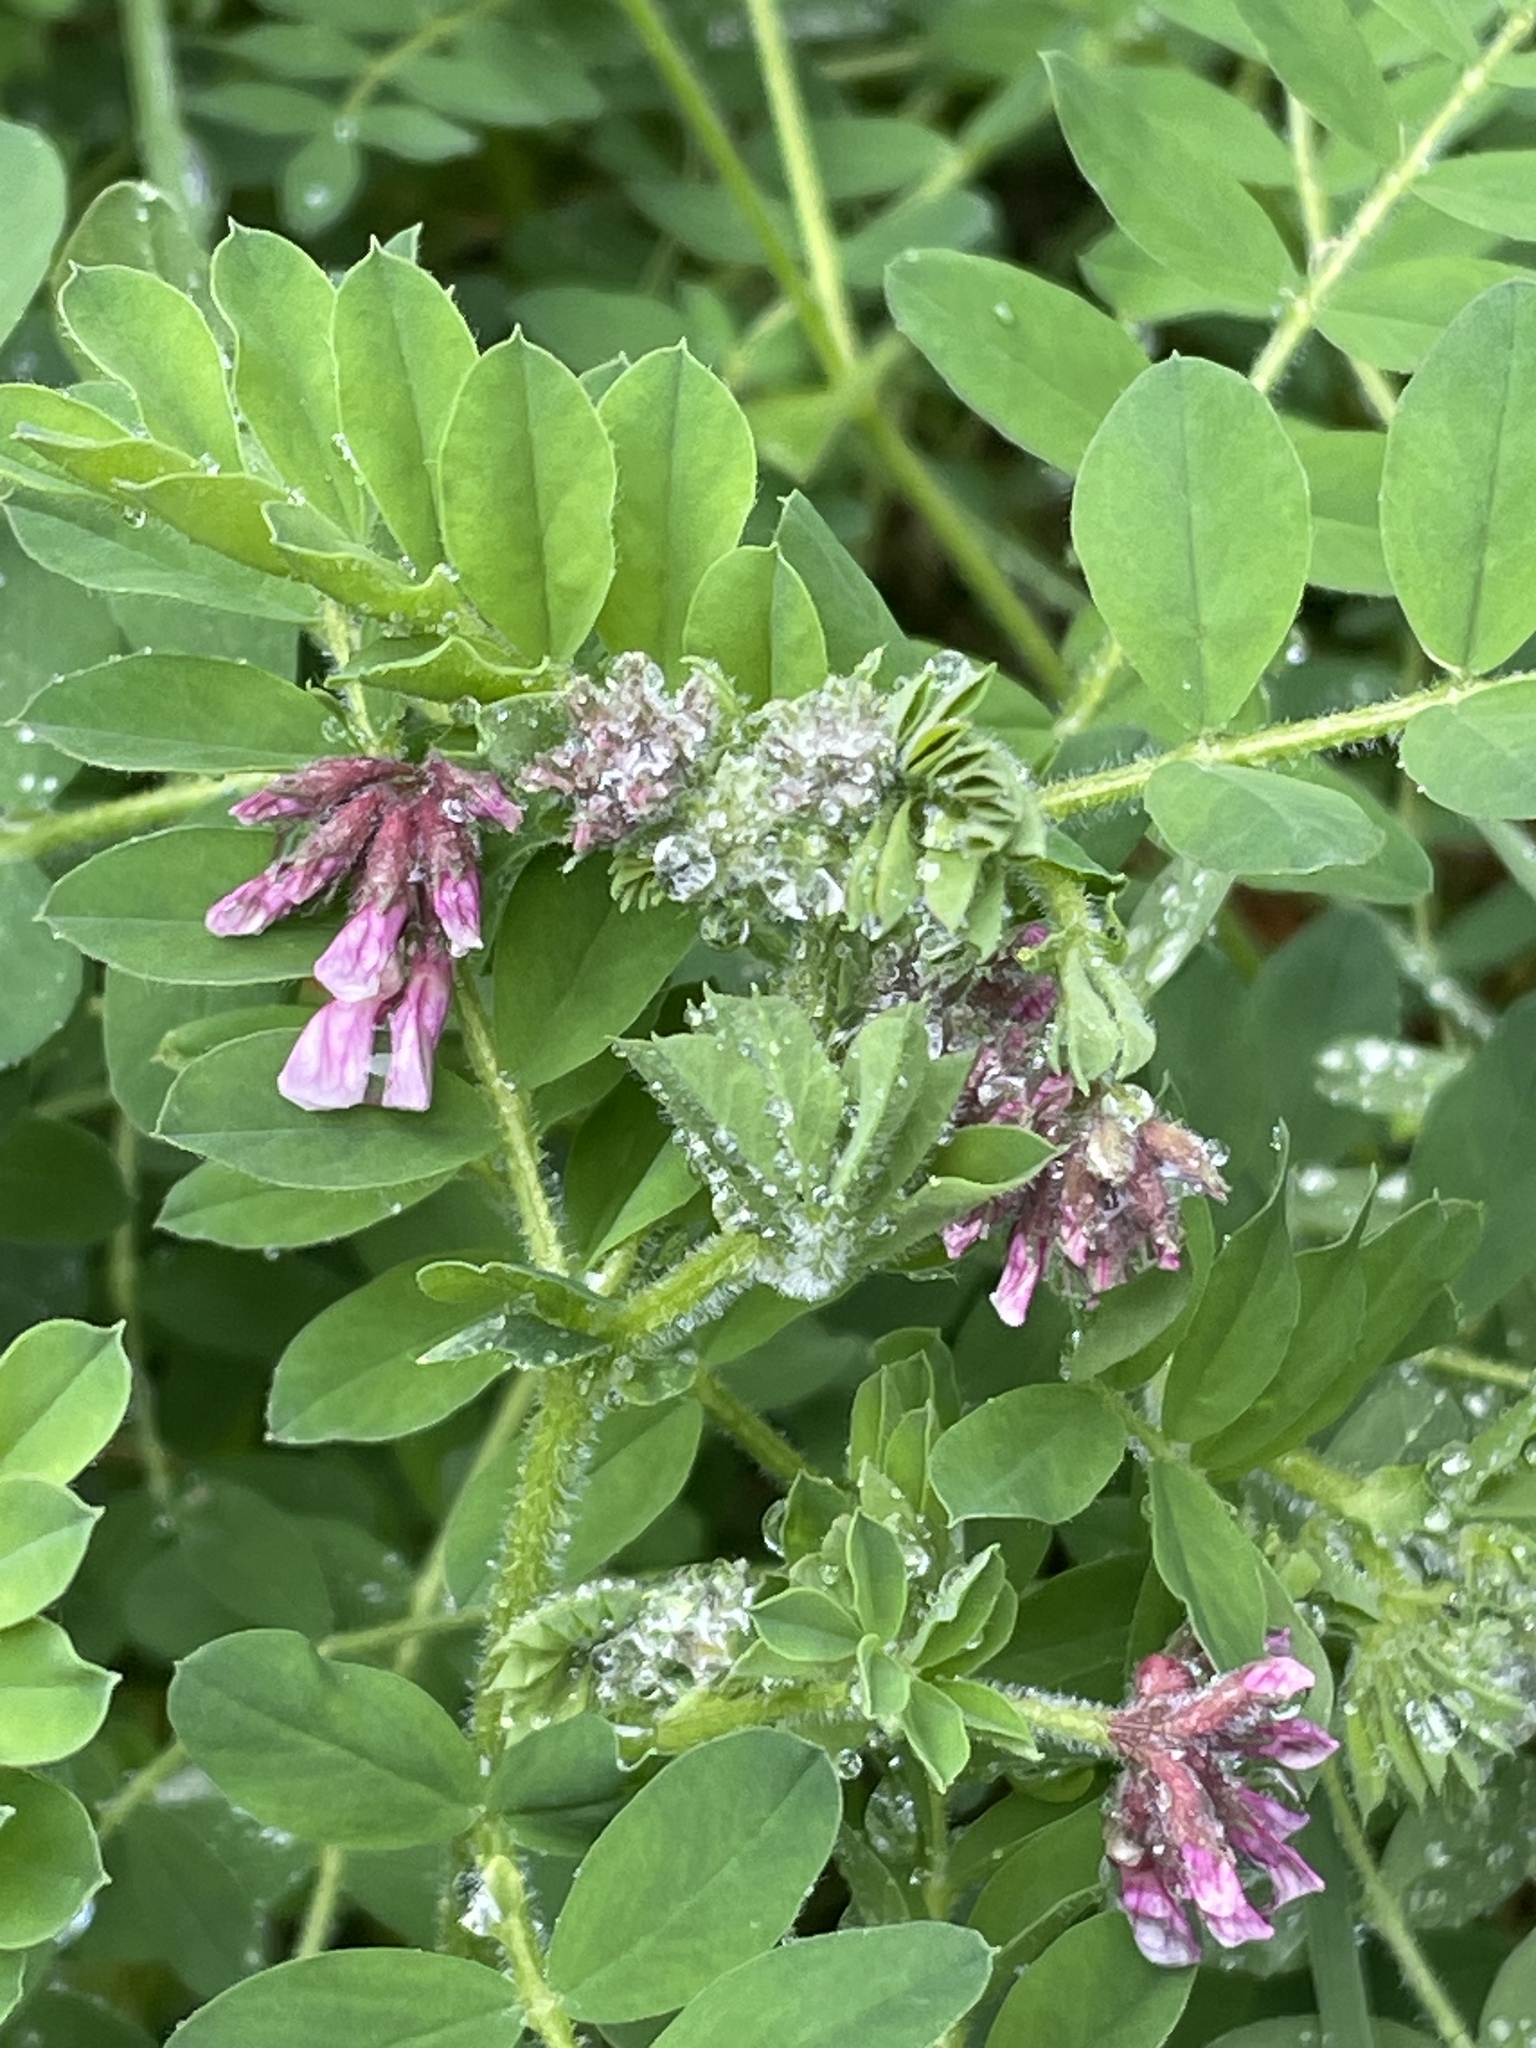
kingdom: Plantae
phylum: Tracheophyta
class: Magnoliopsida
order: Fabales
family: Fabaceae
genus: Hosackia
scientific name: Hosackia stipularis
